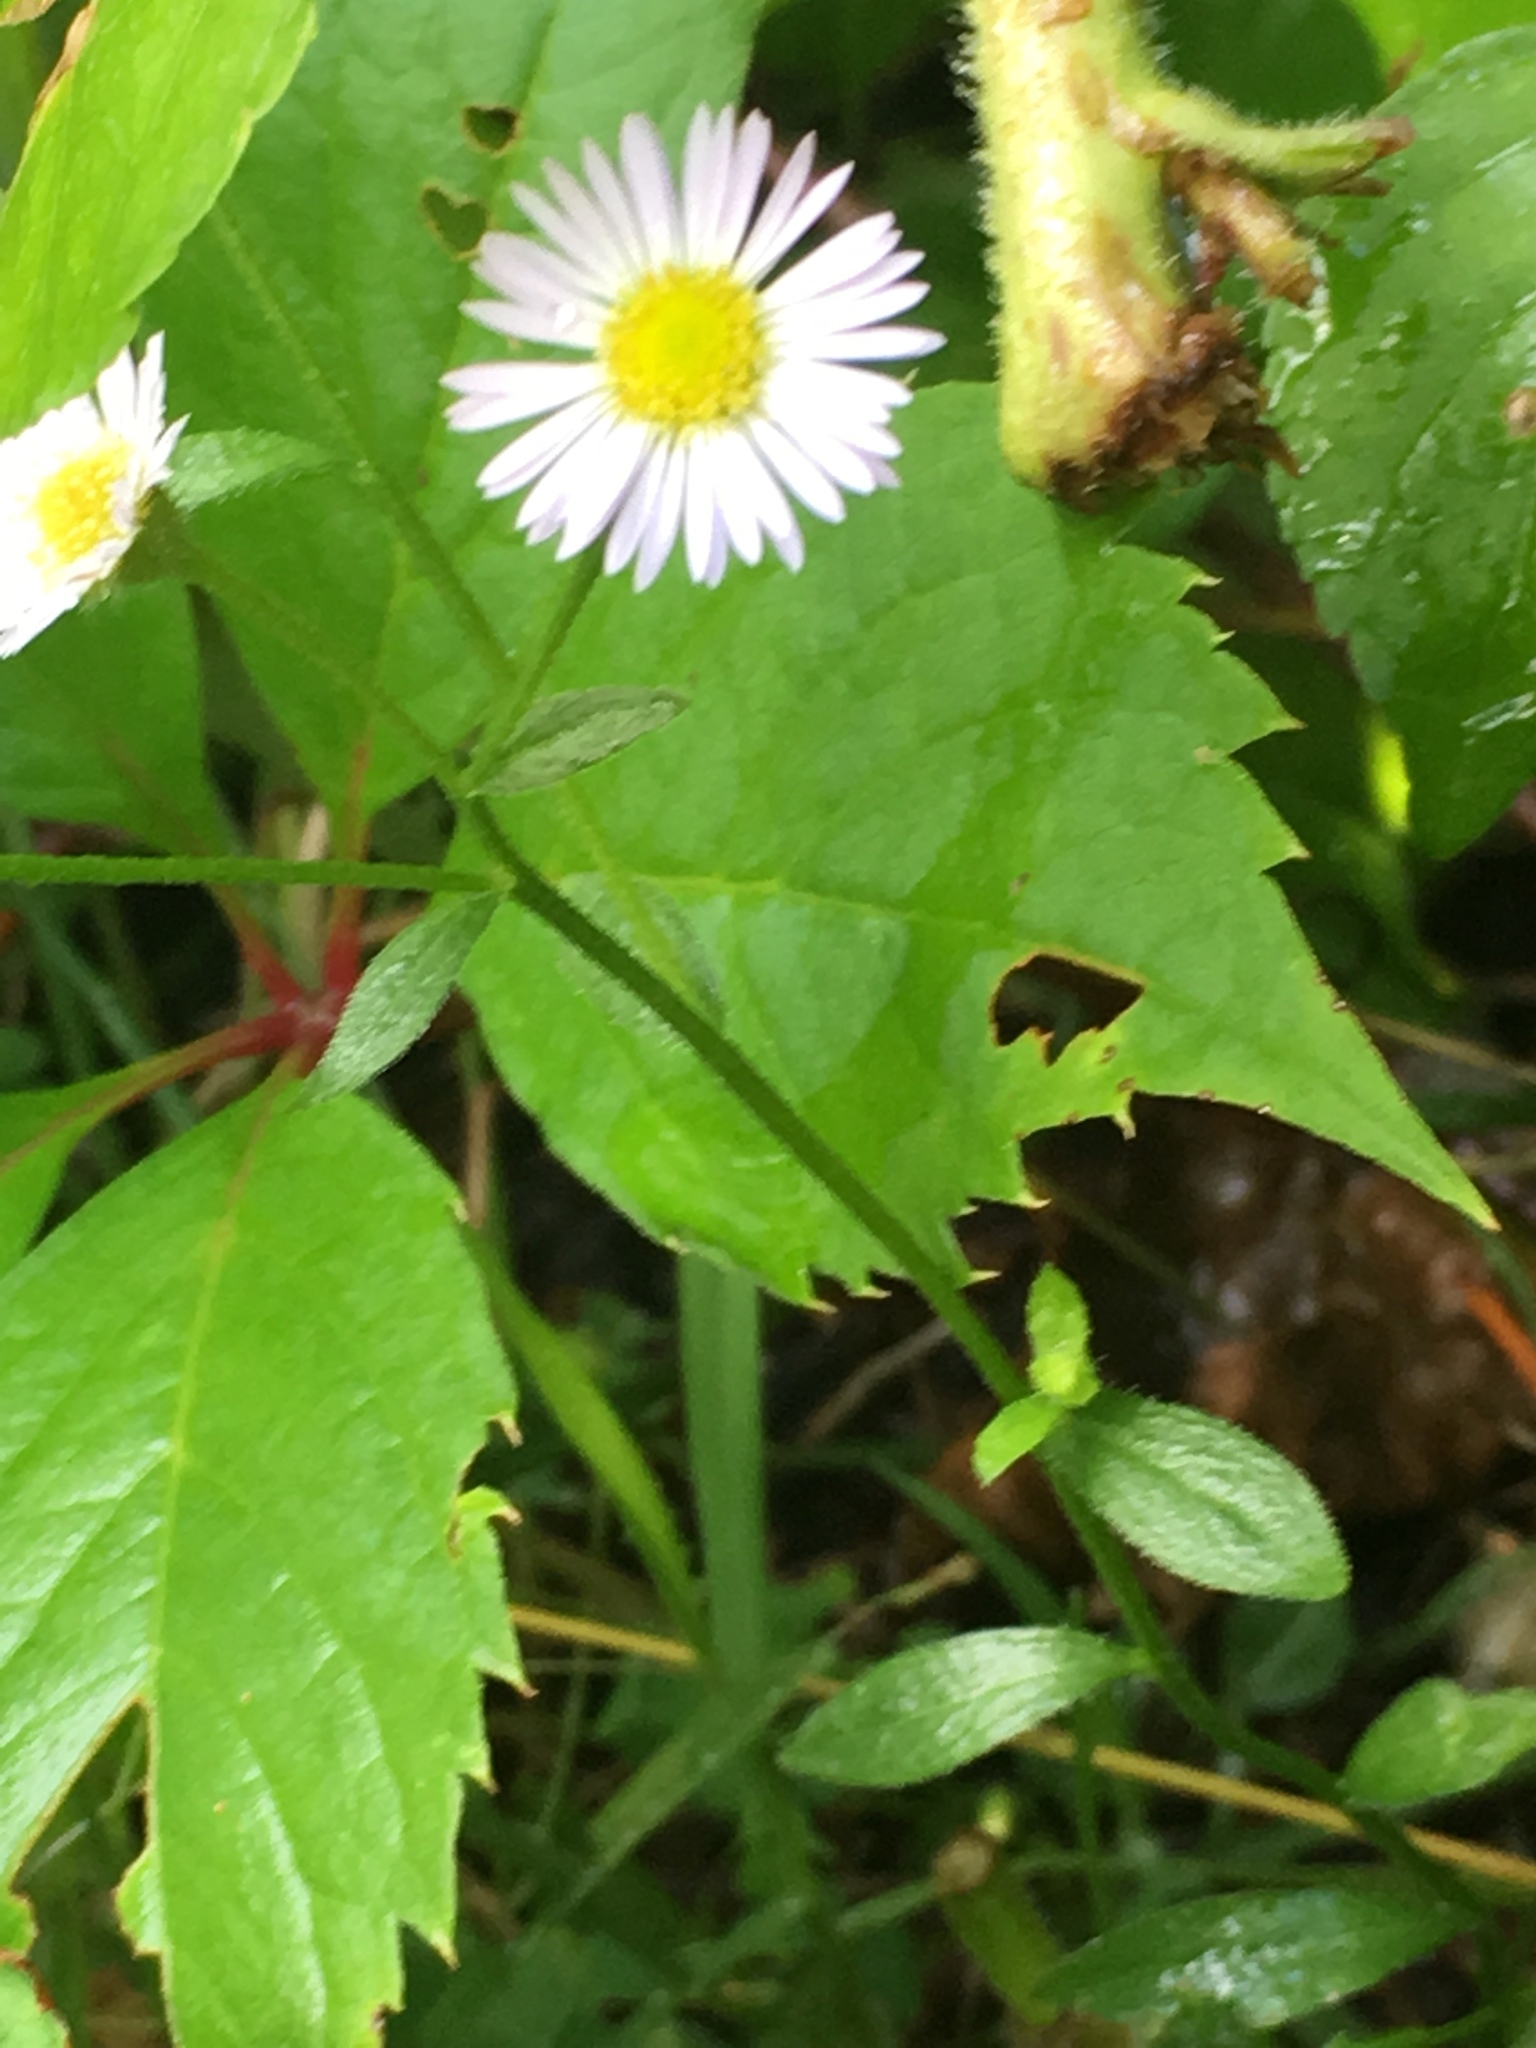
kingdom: Plantae
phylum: Tracheophyta
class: Magnoliopsida
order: Asterales
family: Asteraceae
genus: Erigeron
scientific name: Erigeron strigosus
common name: Common eastern fleabane
